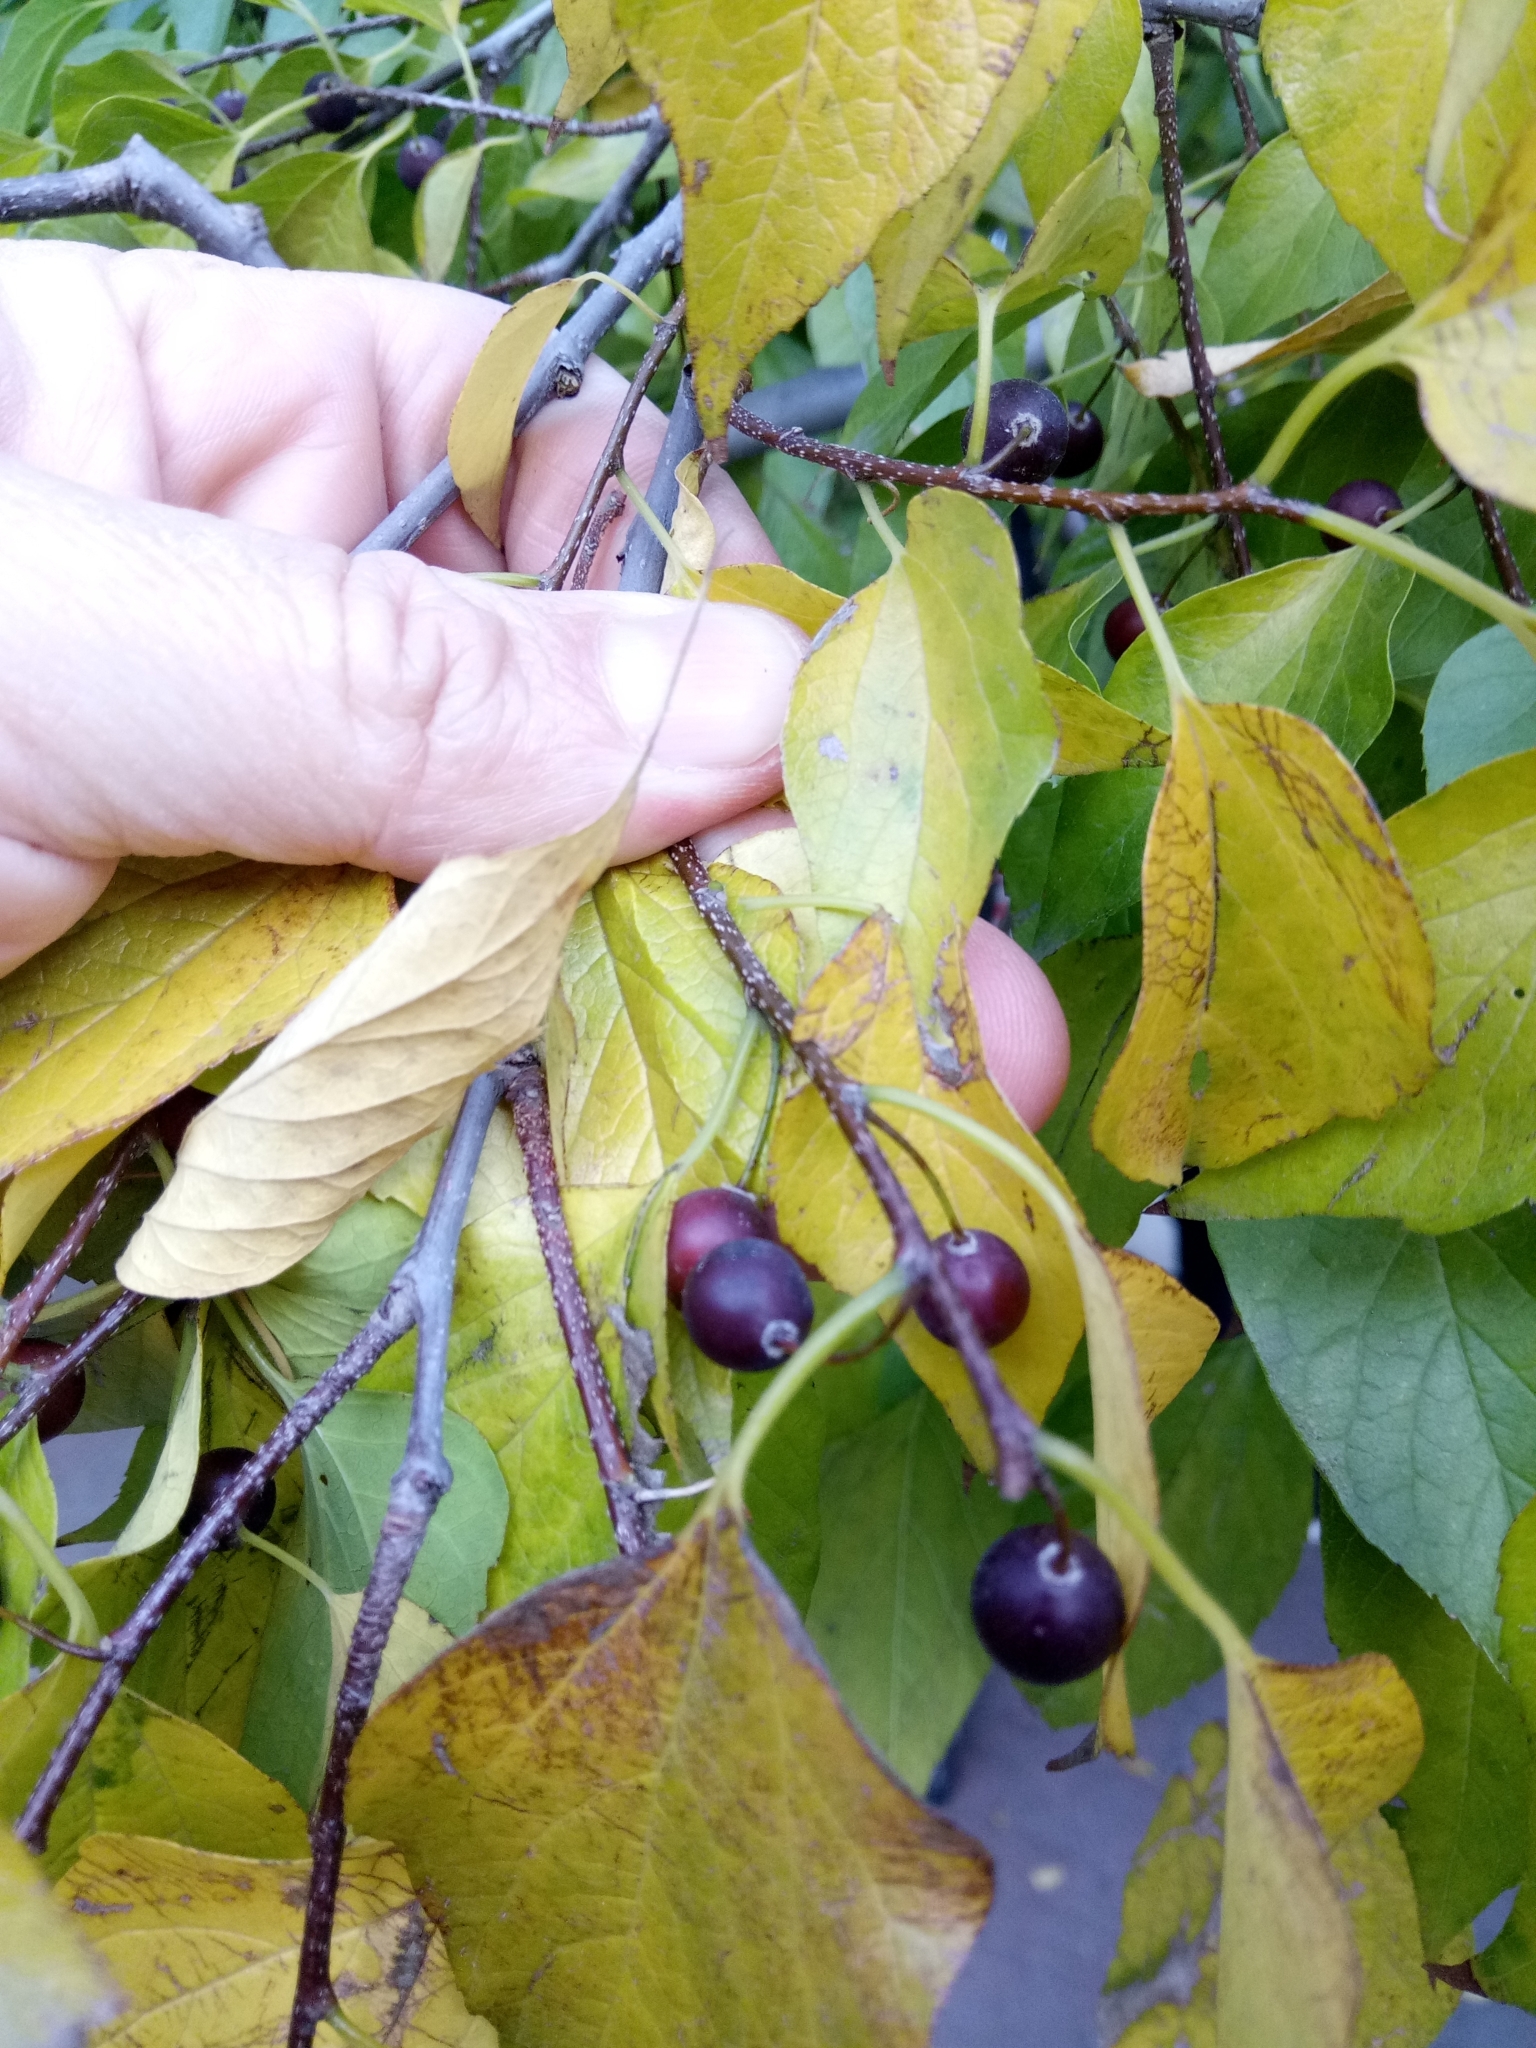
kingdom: Plantae
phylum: Tracheophyta
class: Magnoliopsida
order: Rosales
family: Cannabaceae
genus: Celtis
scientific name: Celtis occidentalis
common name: Common hackberry
